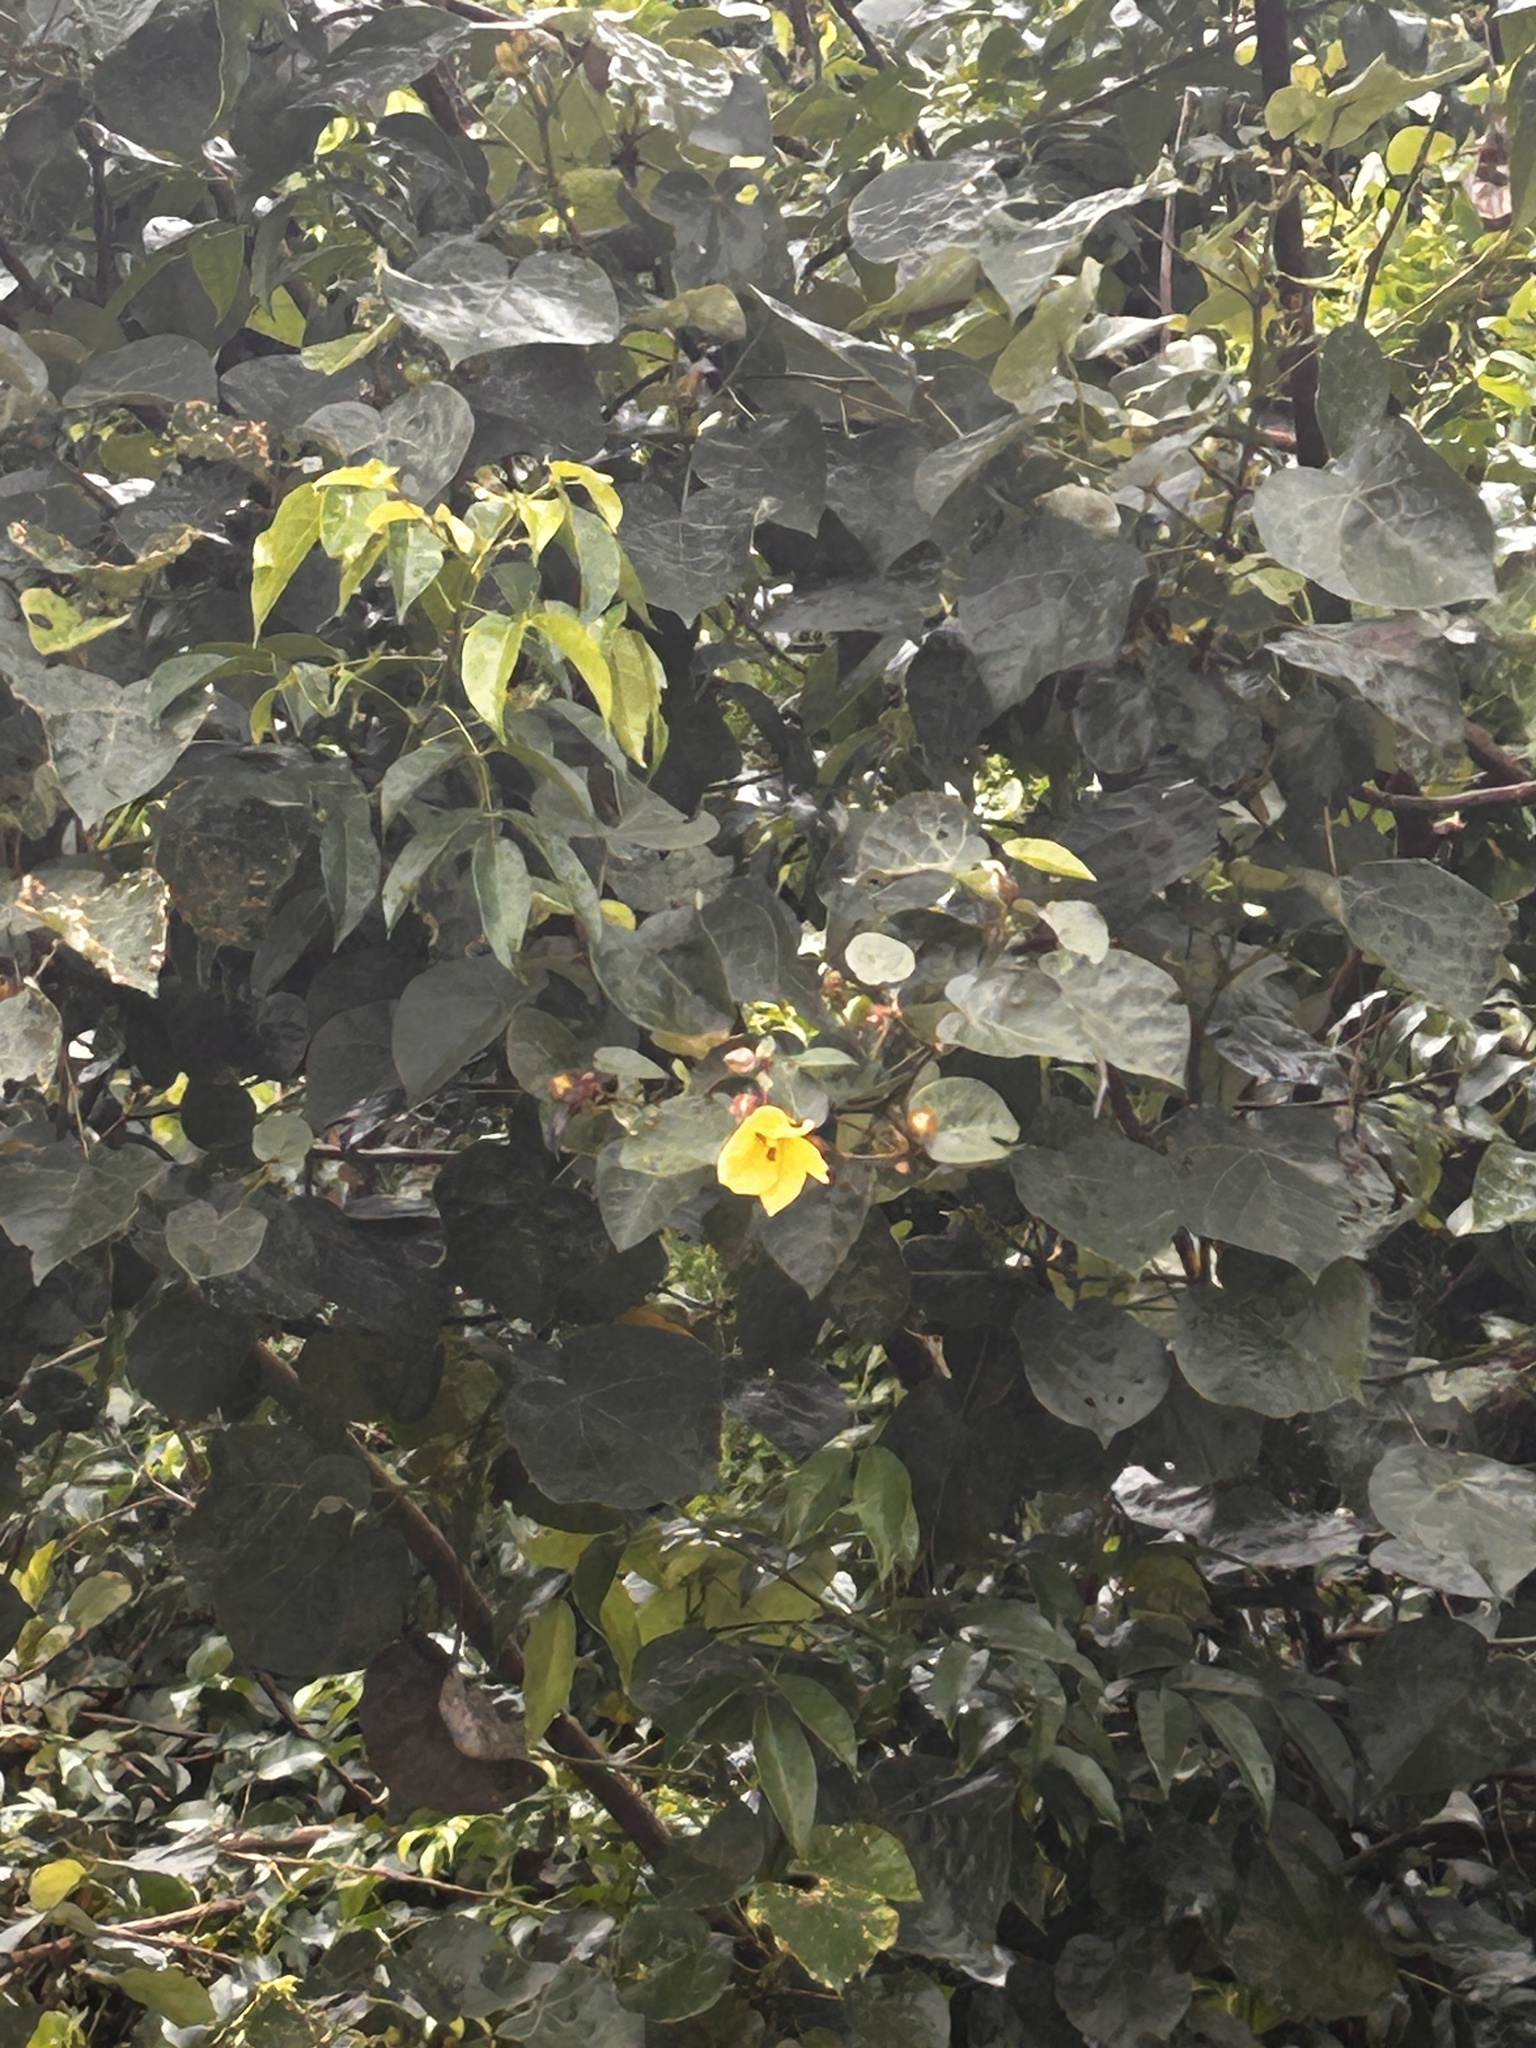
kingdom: Plantae
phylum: Tracheophyta
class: Magnoliopsida
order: Malvales
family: Malvaceae
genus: Talipariti
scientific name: Talipariti tiliaceum
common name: Sea hibiscus
